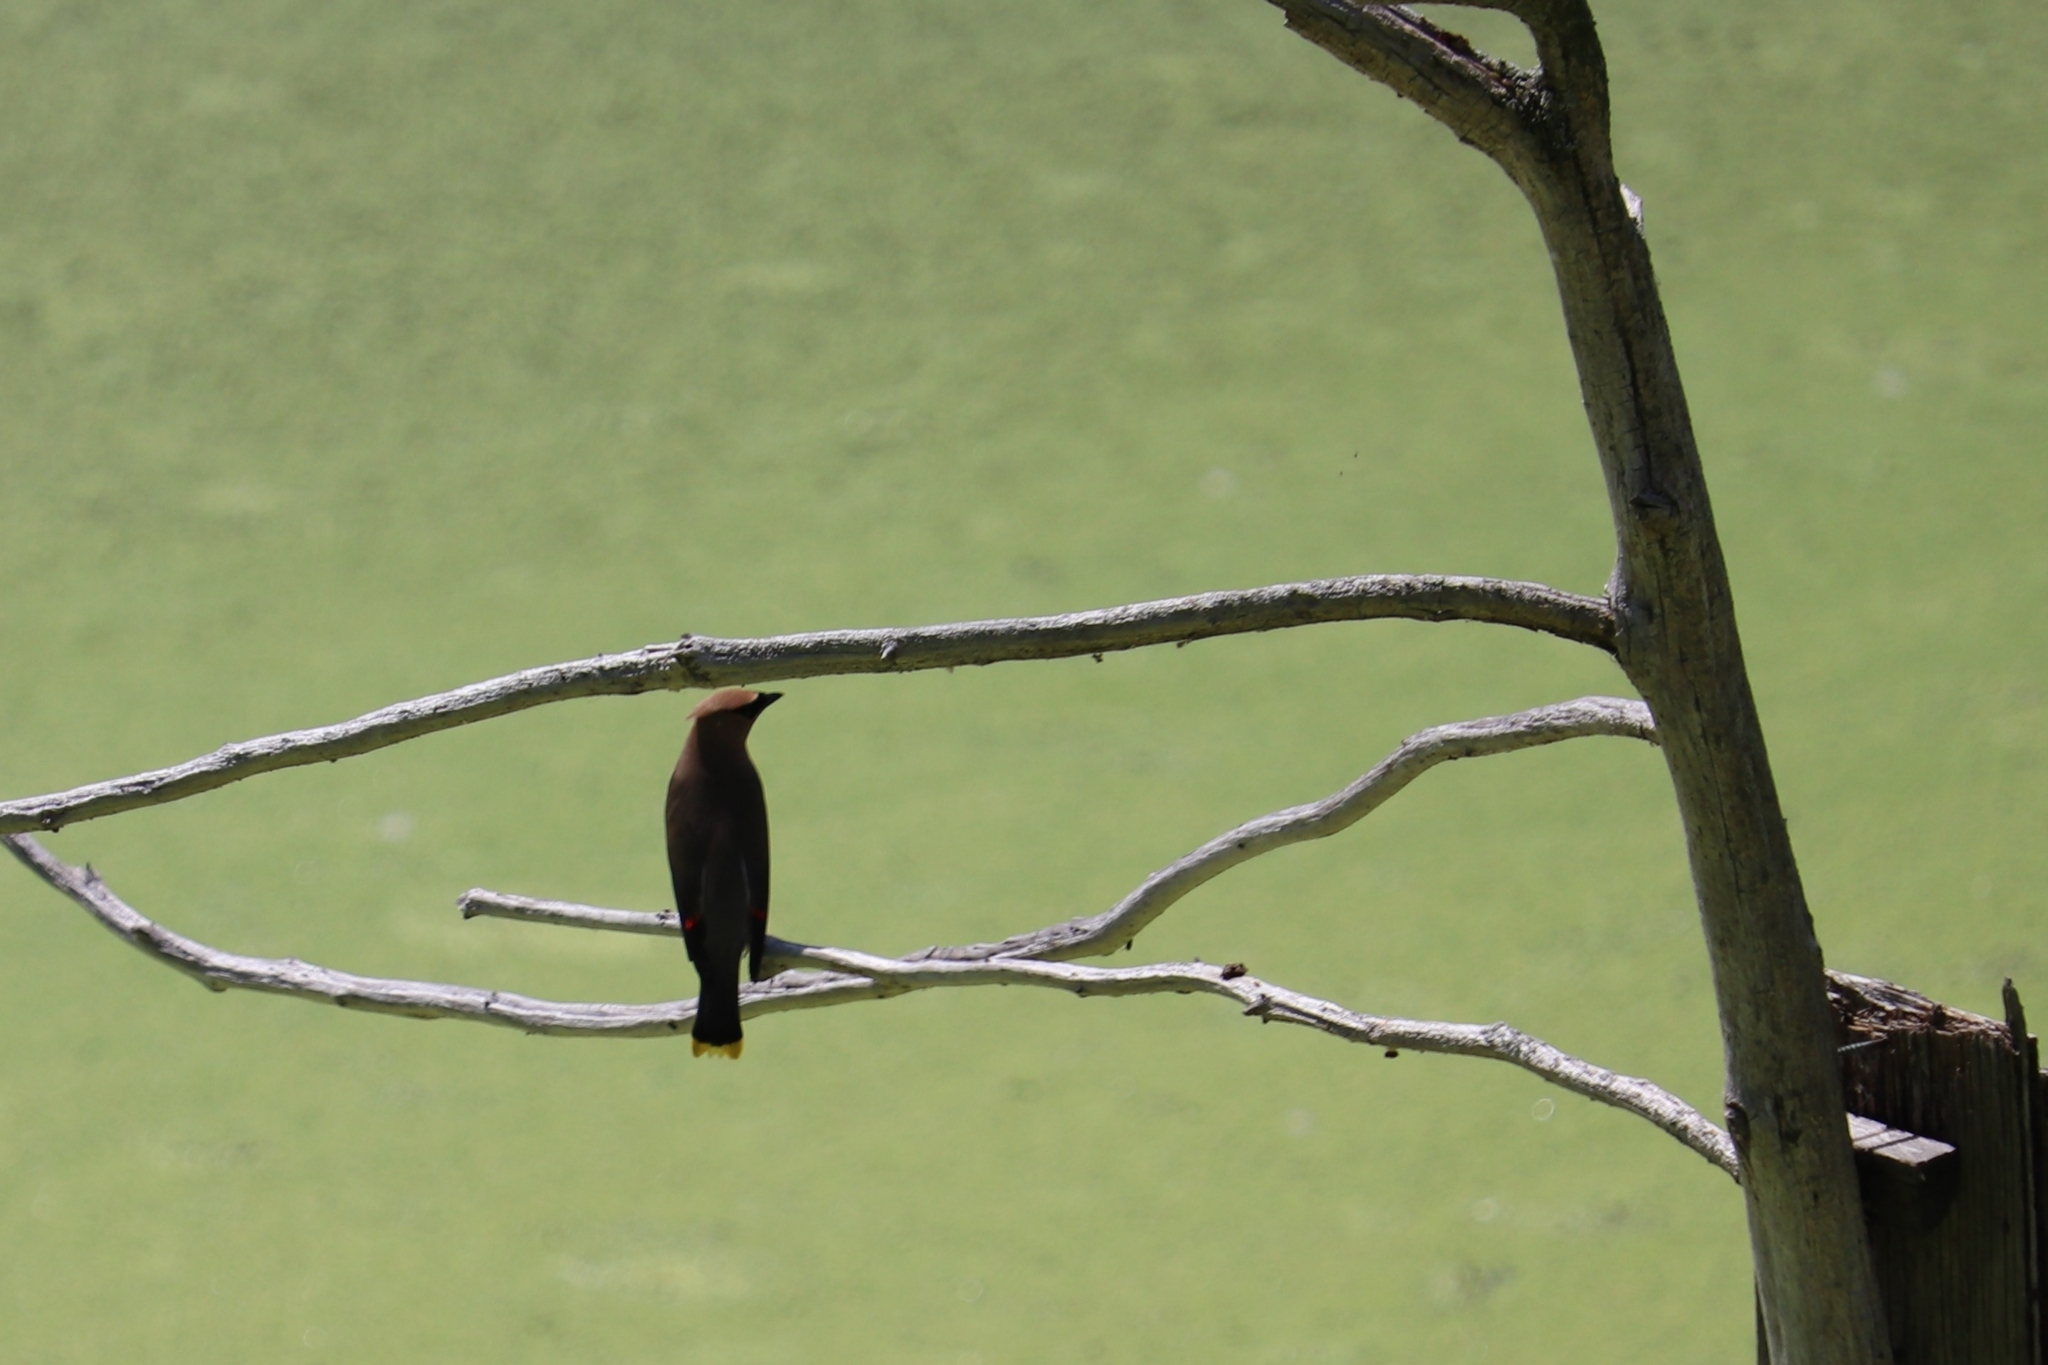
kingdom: Animalia
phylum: Chordata
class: Aves
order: Passeriformes
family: Bombycillidae
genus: Bombycilla
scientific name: Bombycilla cedrorum
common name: Cedar waxwing
